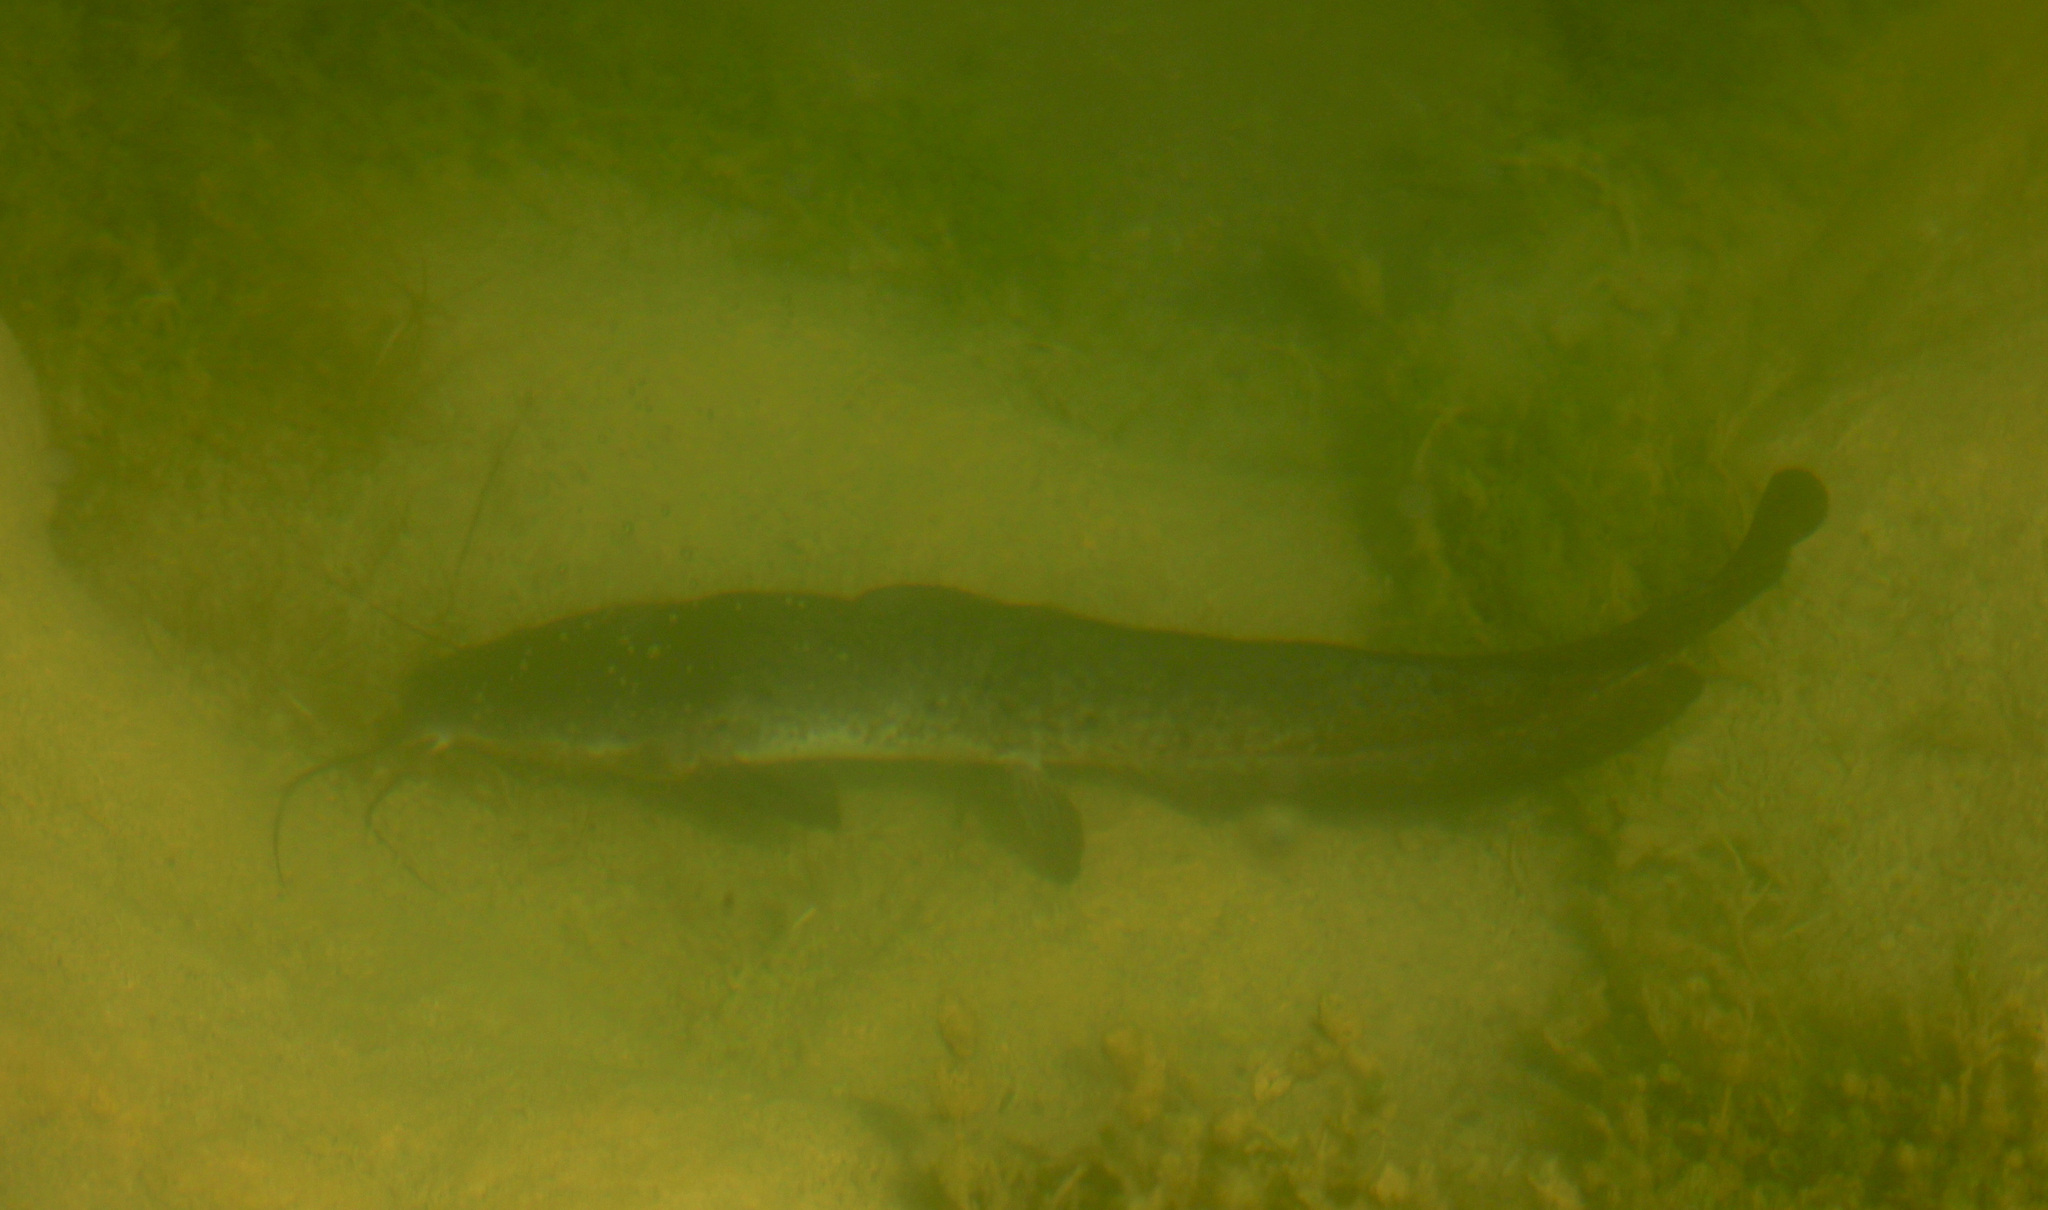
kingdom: Animalia
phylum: Chordata
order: Siluriformes
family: Clariidae
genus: Clarias
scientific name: Clarias gariepinus
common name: African catfish
